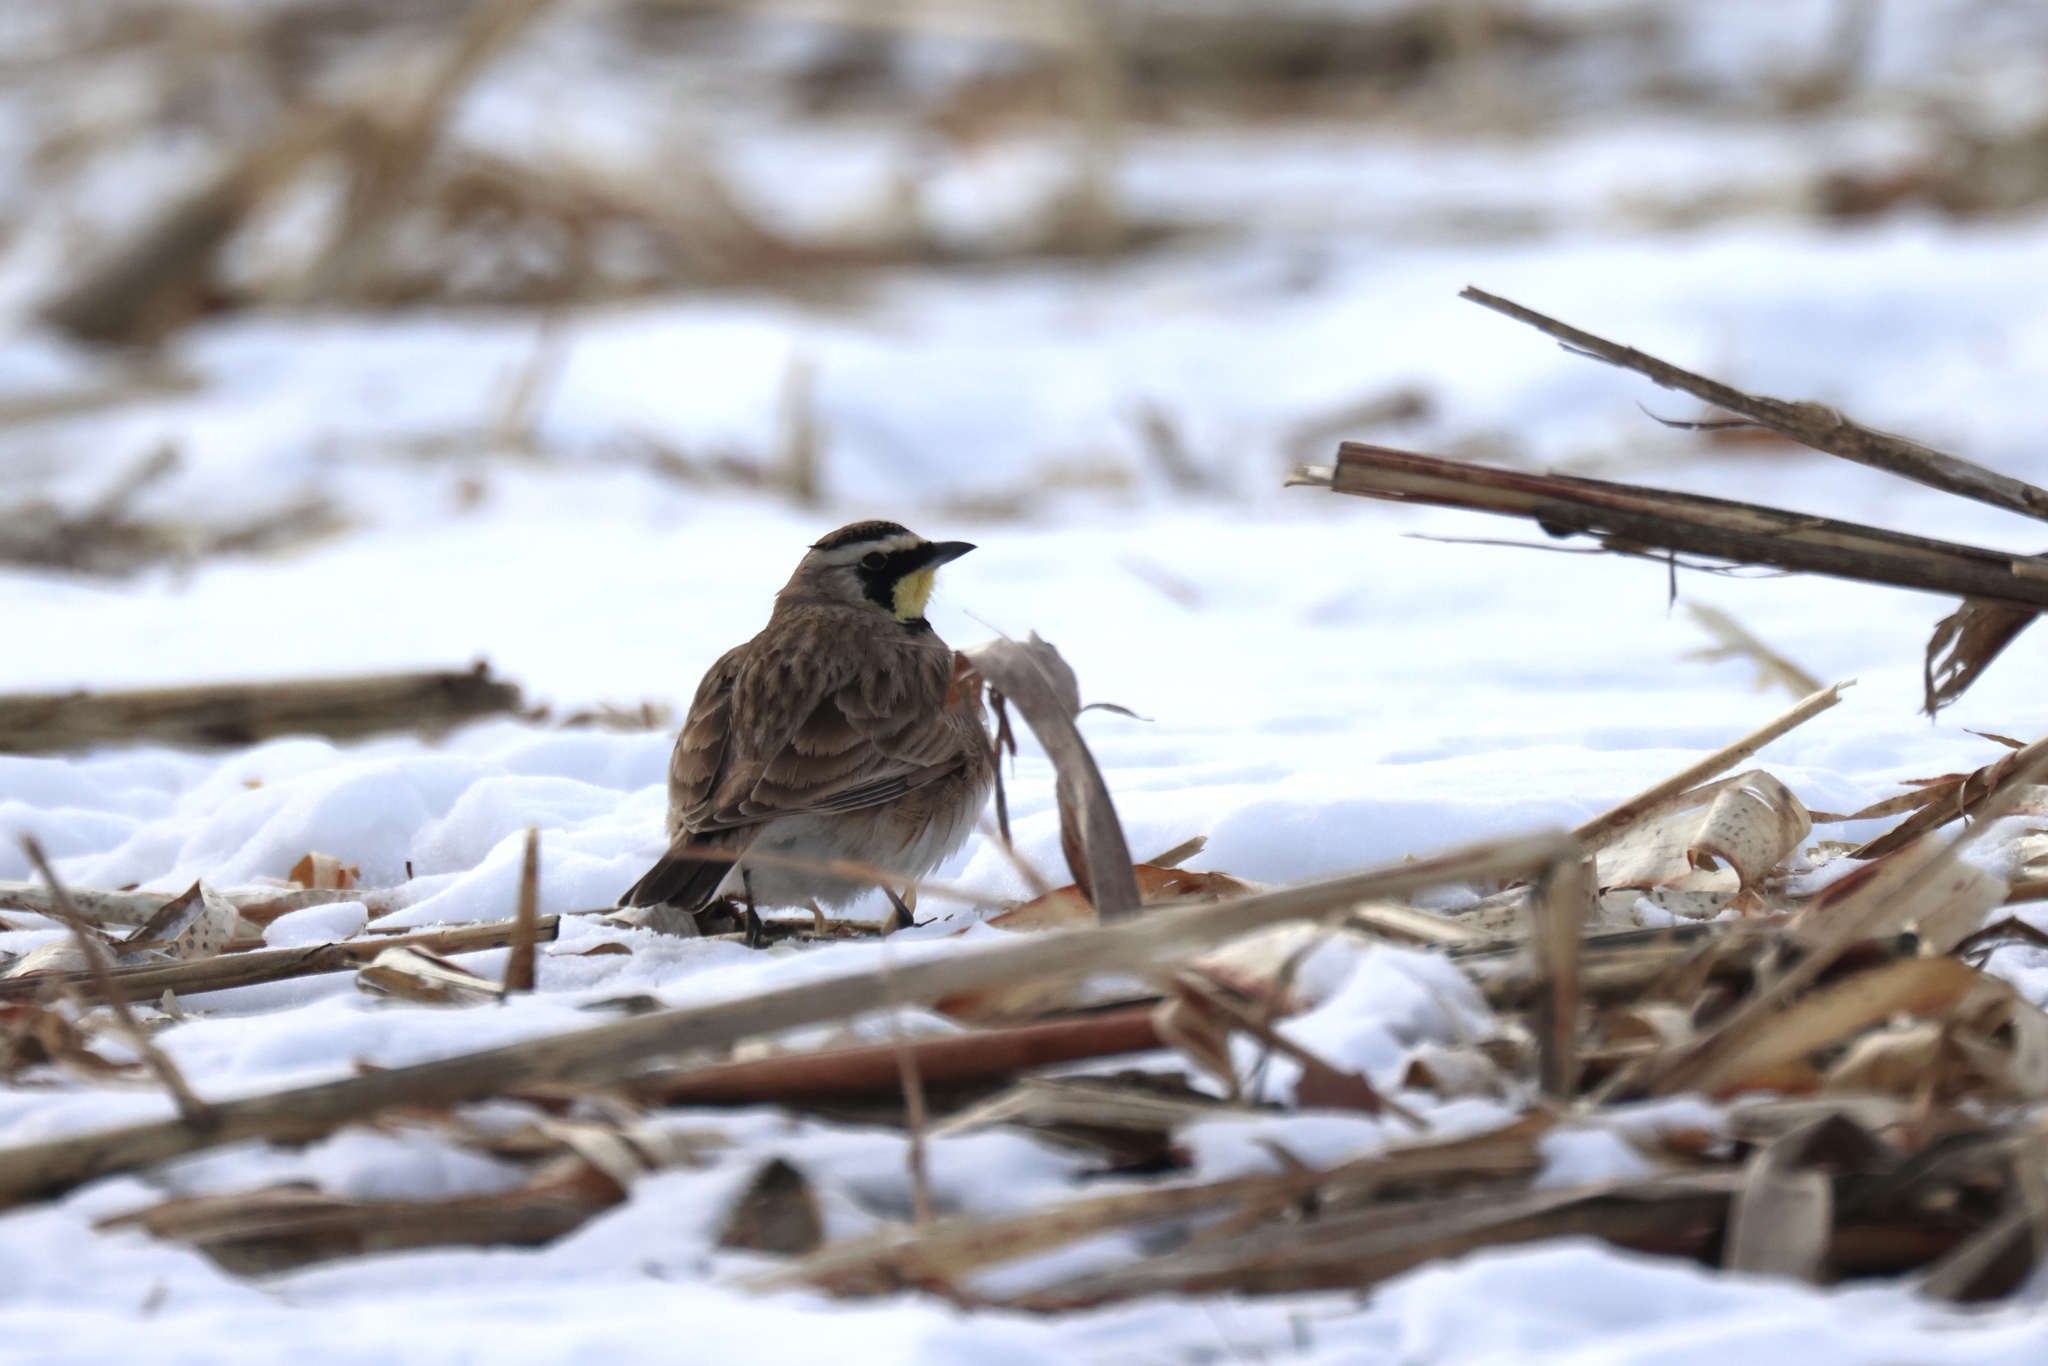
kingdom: Animalia
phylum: Chordata
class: Aves
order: Passeriformes
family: Alaudidae
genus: Eremophila
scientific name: Eremophila alpestris
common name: Horned lark
